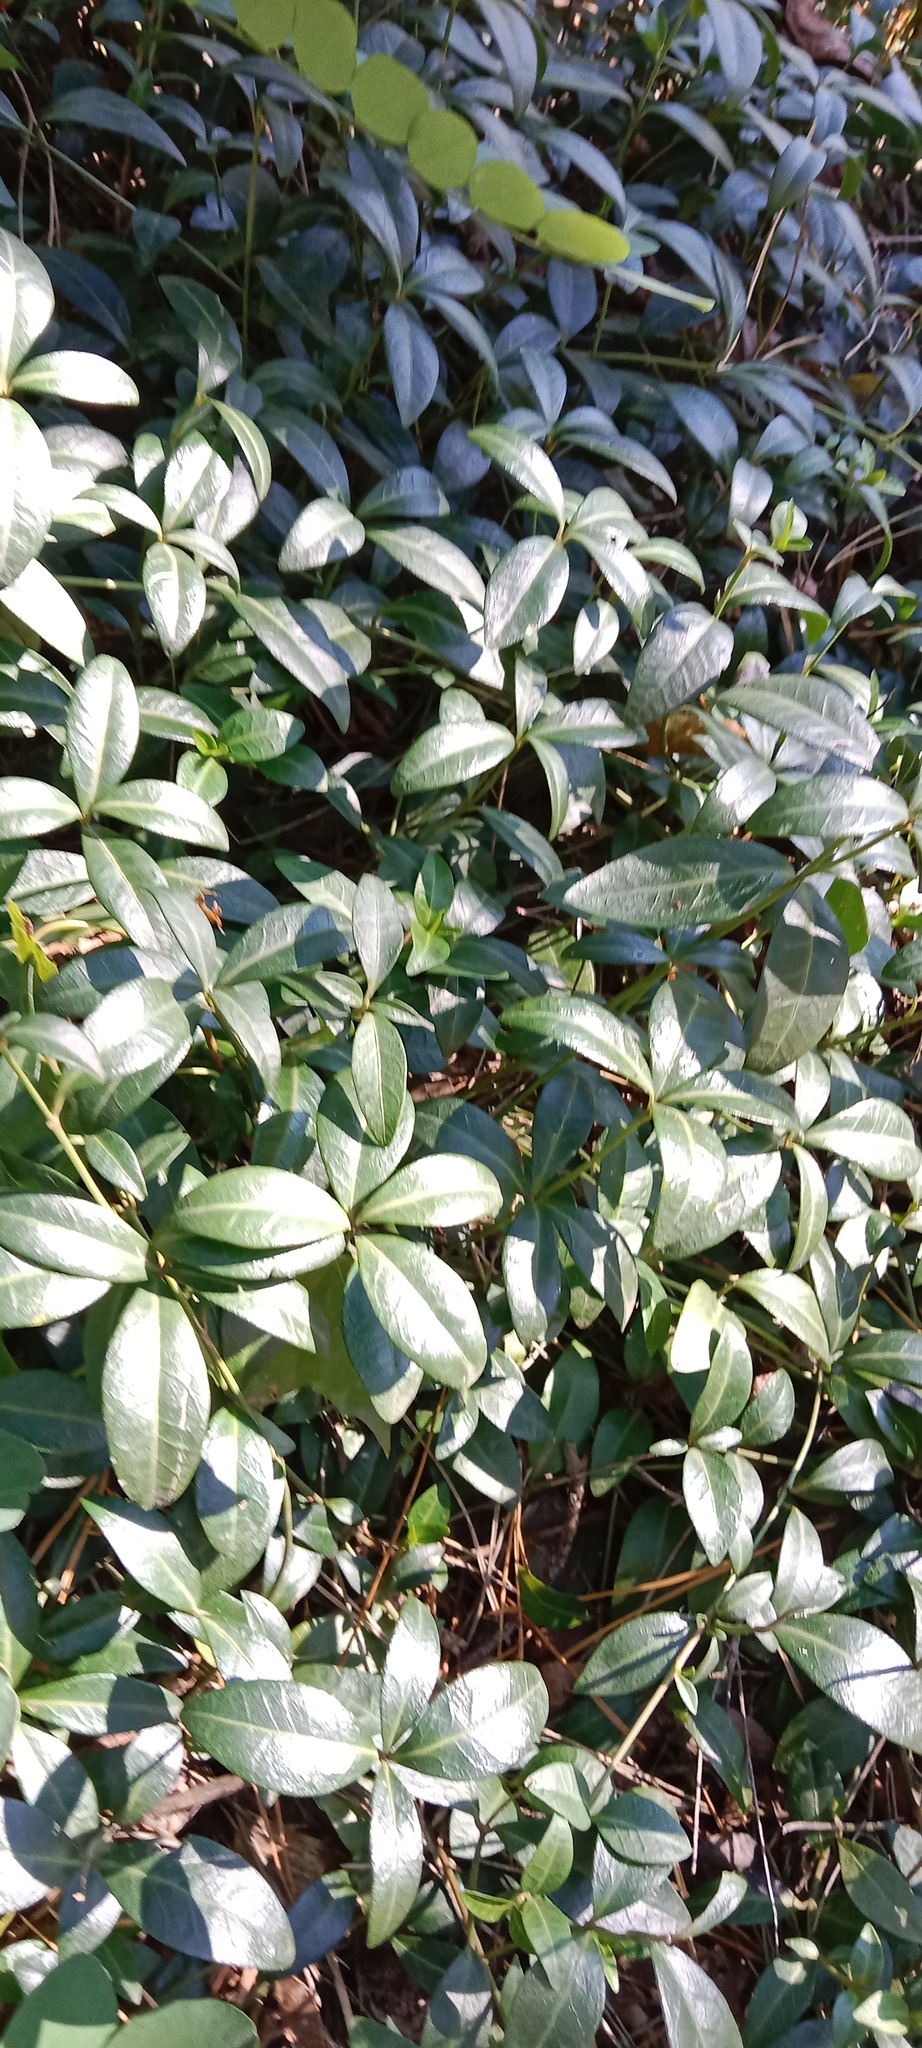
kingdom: Plantae
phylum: Tracheophyta
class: Magnoliopsida
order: Gentianales
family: Apocynaceae
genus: Vinca
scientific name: Vinca minor
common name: Lesser periwinkle
